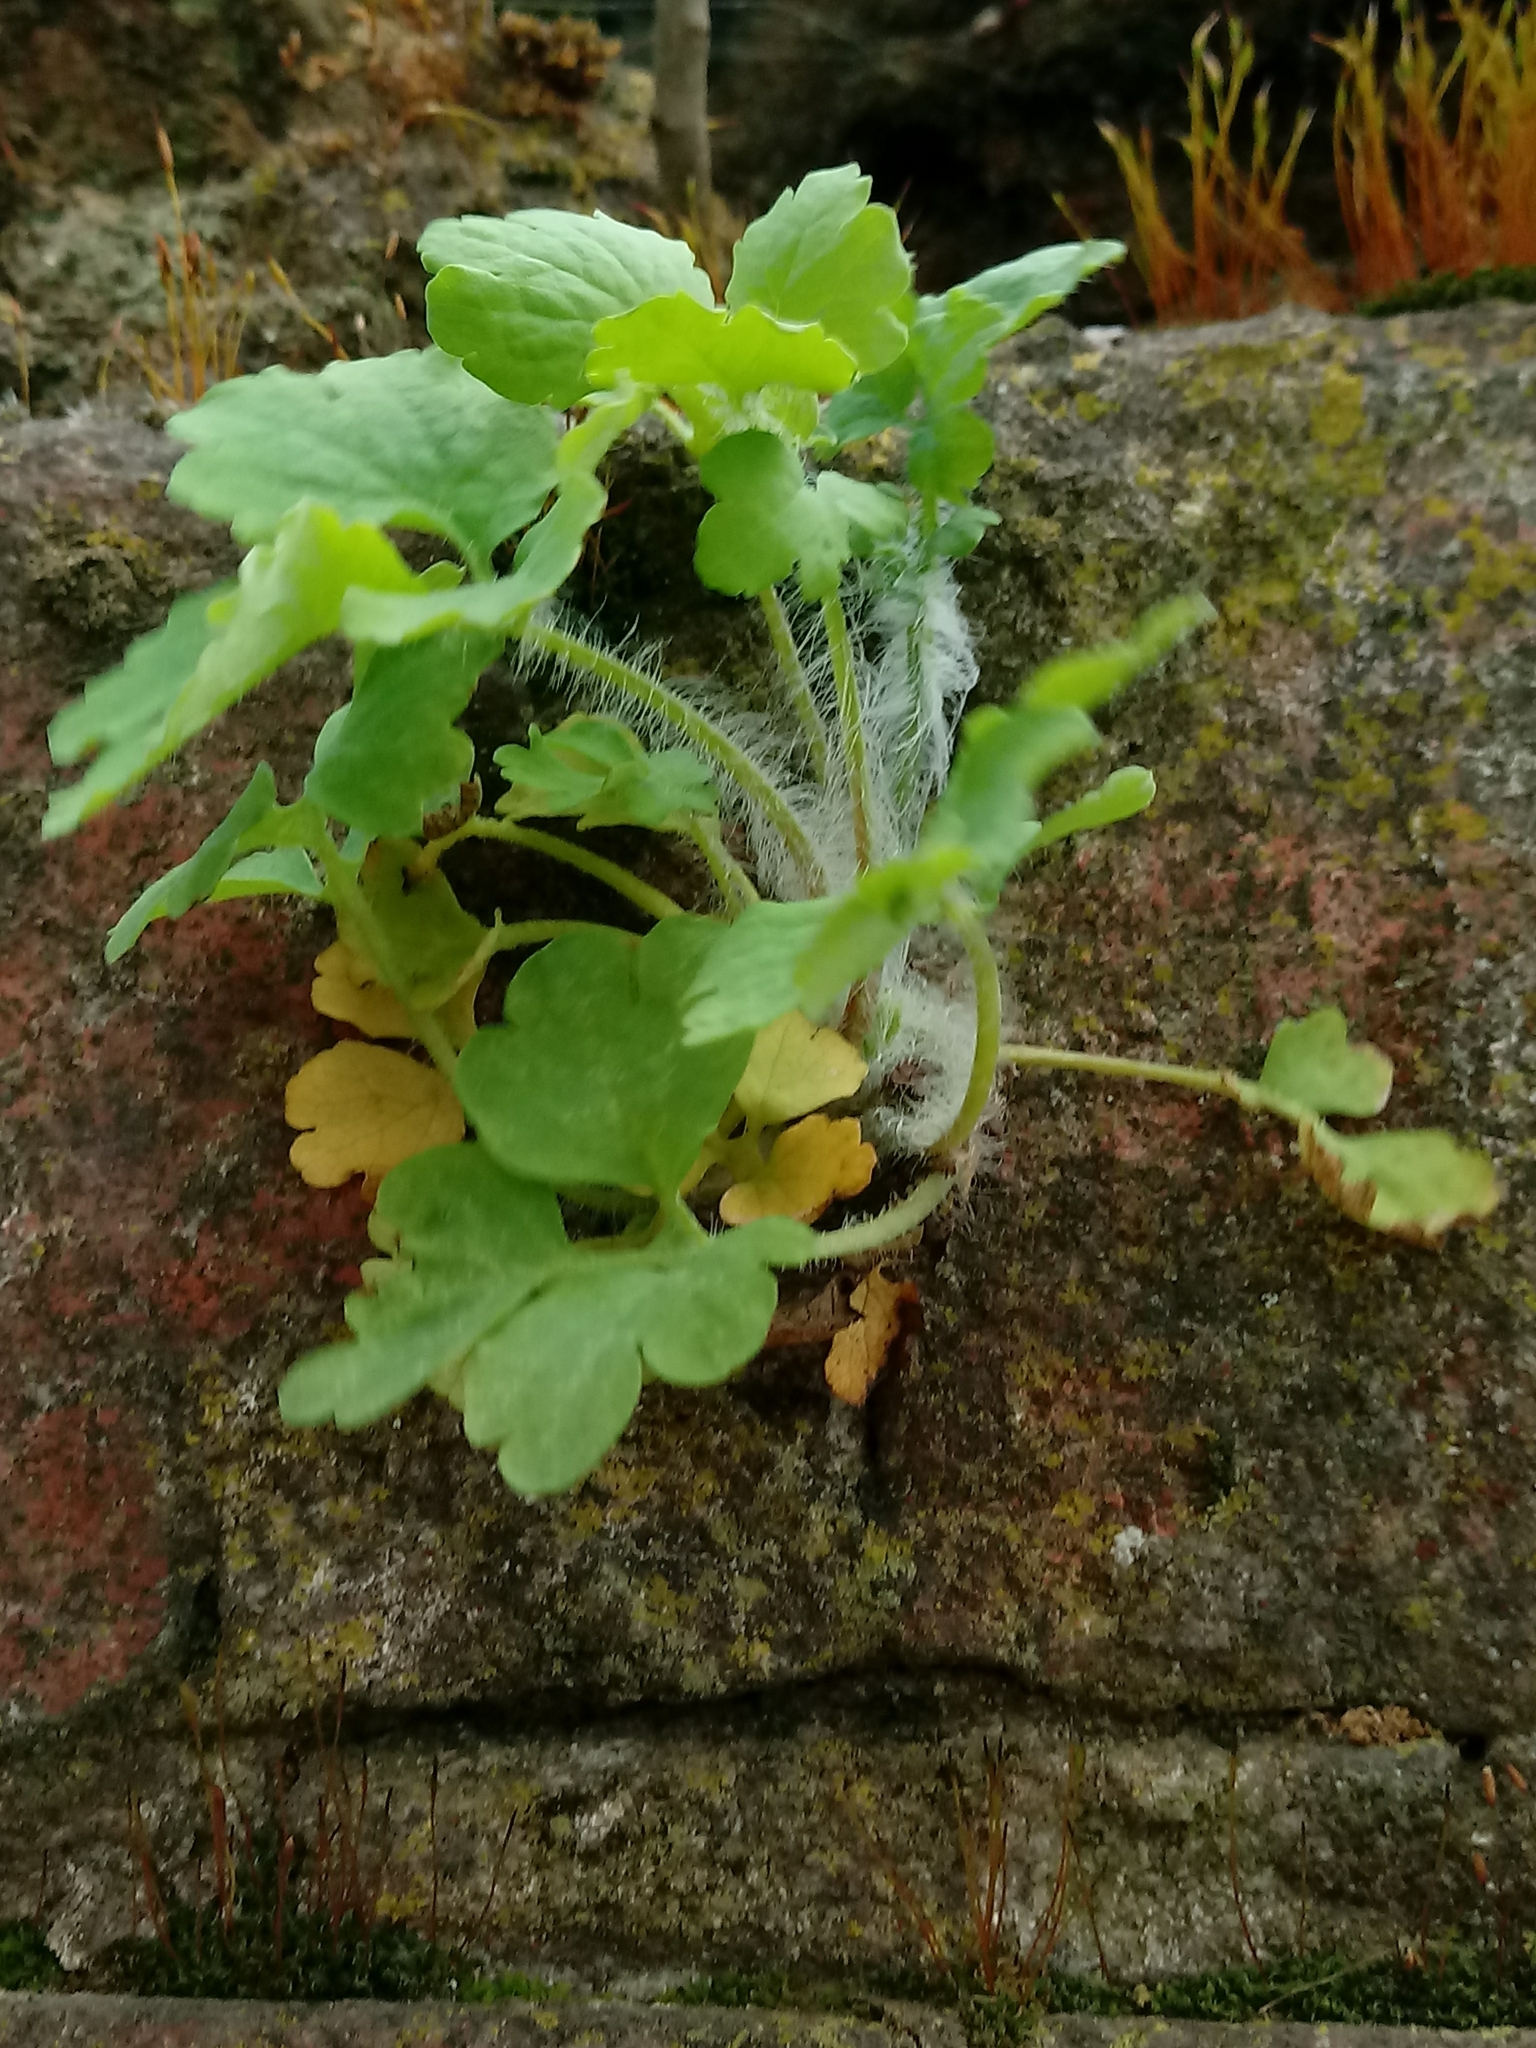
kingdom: Plantae
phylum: Tracheophyta
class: Magnoliopsida
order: Ranunculales
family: Papaveraceae
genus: Chelidonium
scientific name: Chelidonium majus
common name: Greater celandine
